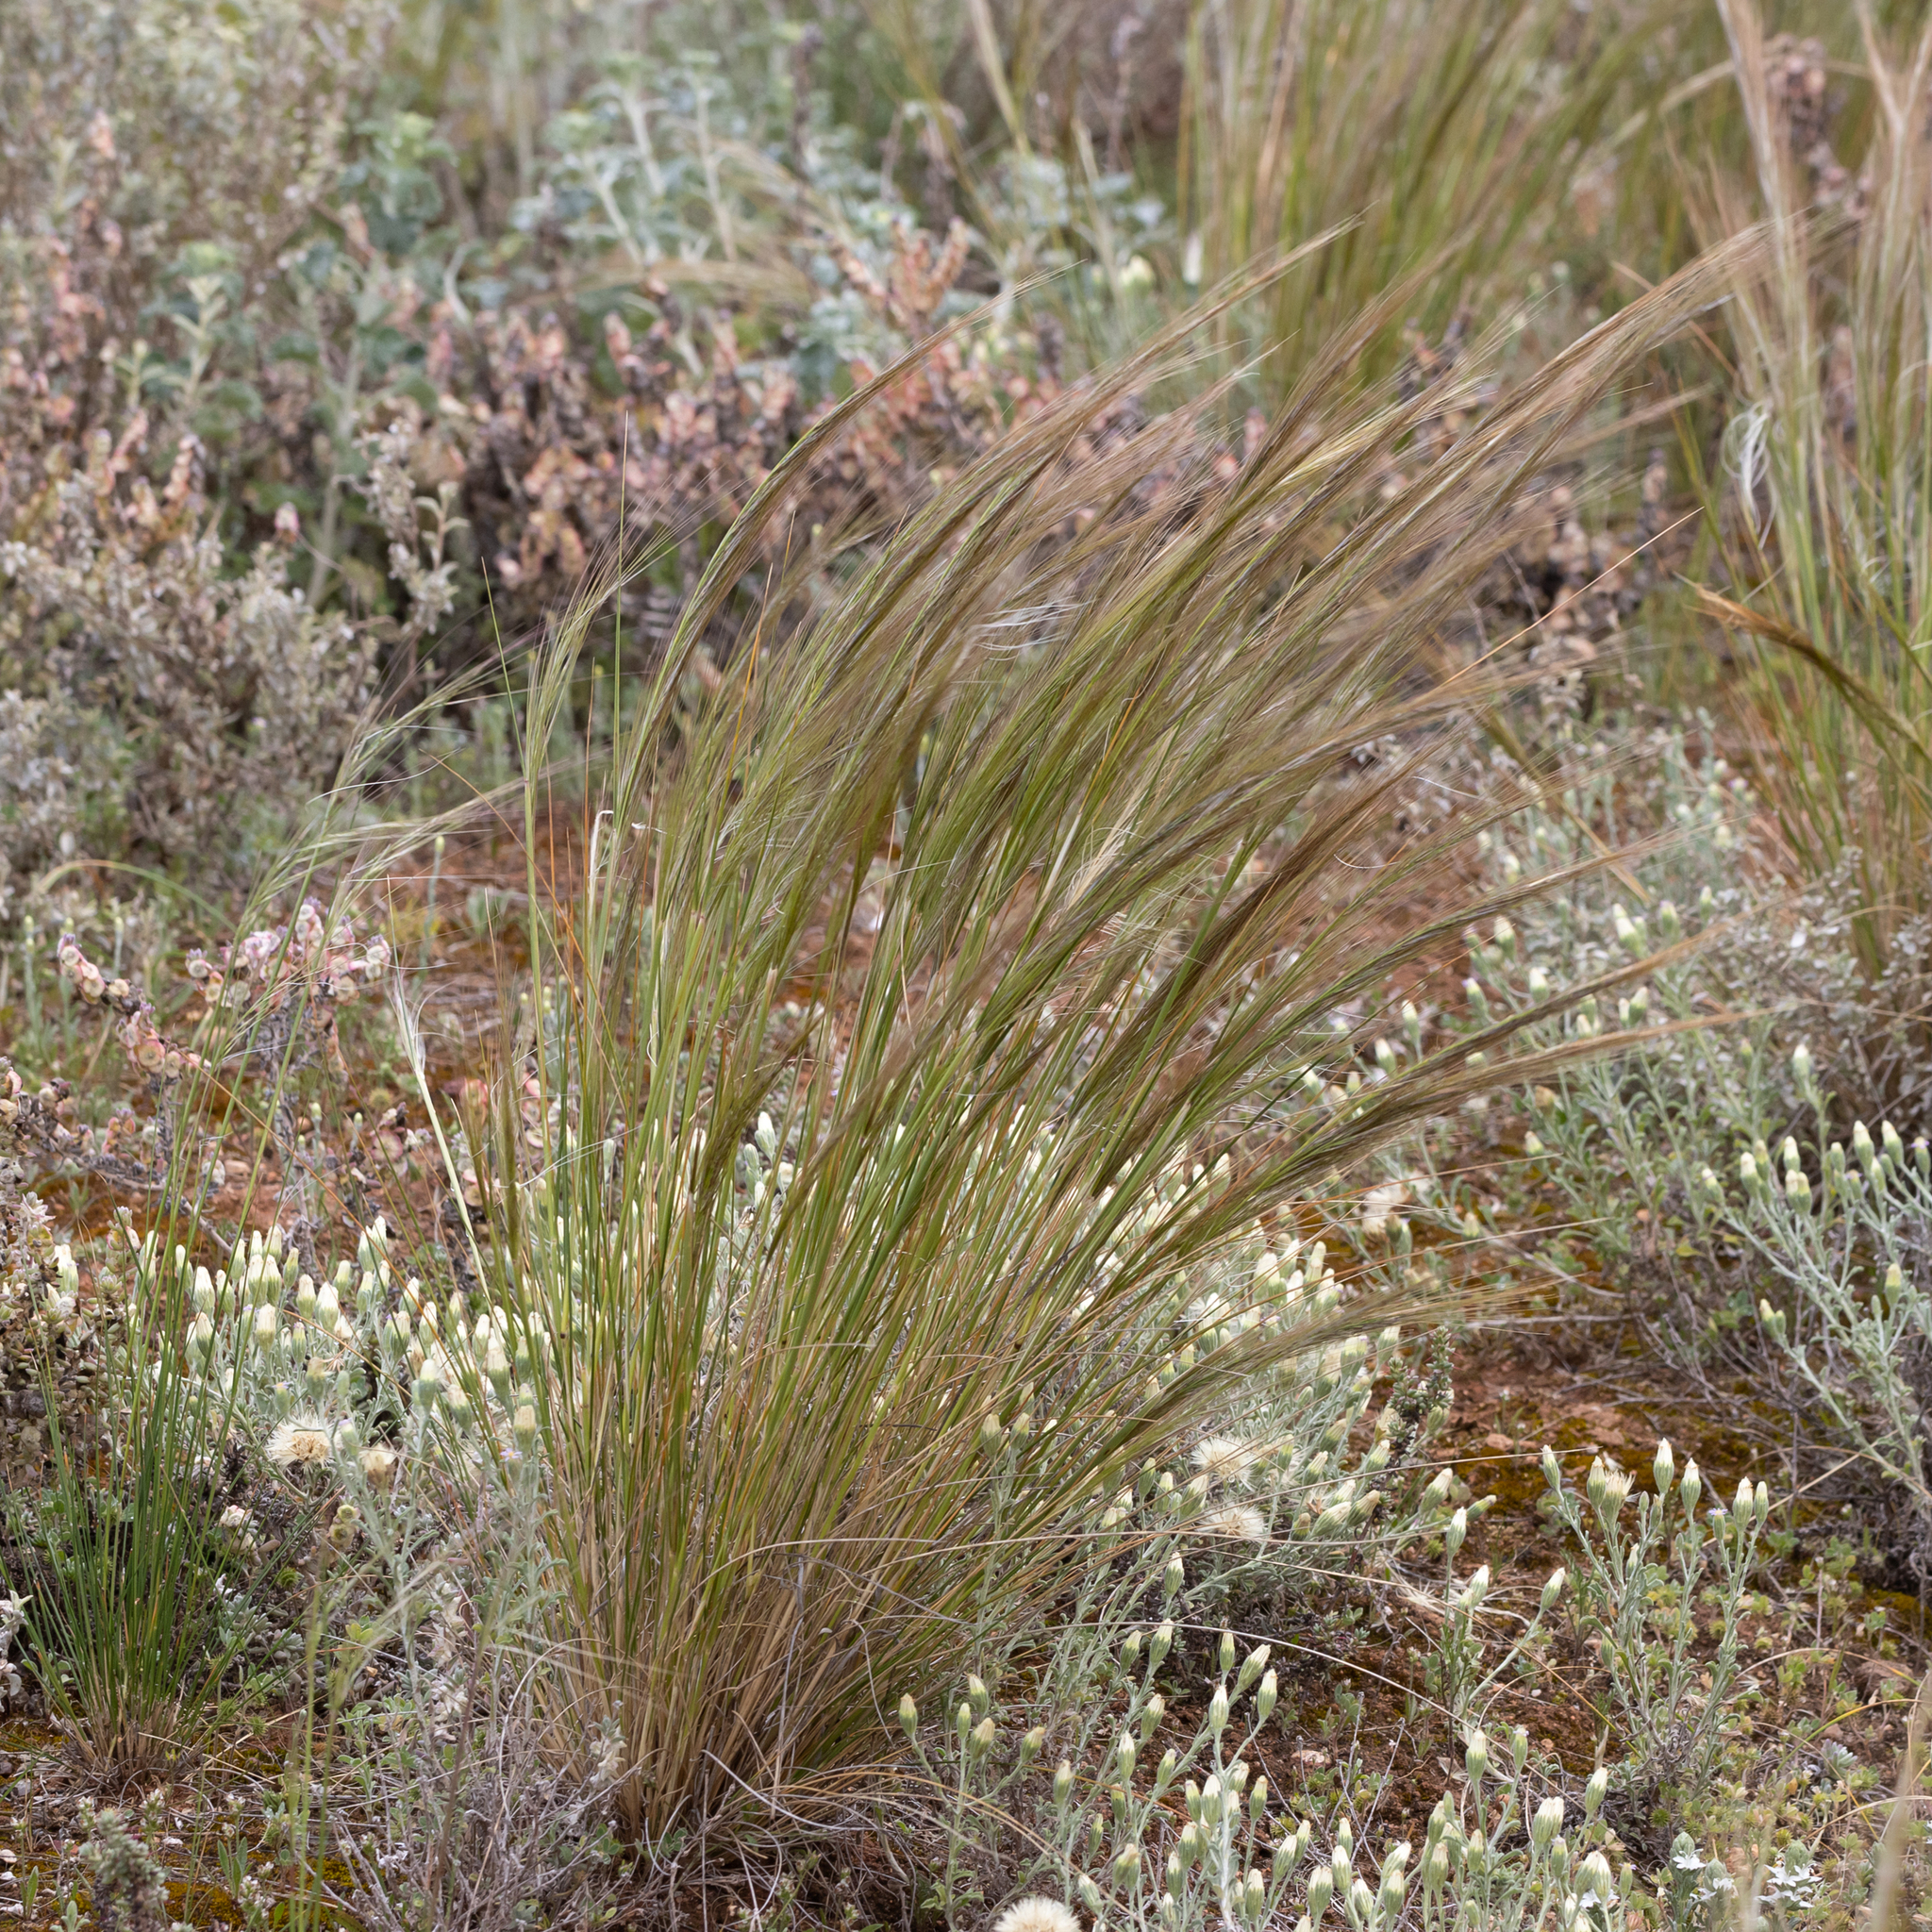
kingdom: Plantae
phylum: Tracheophyta
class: Liliopsida
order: Poales
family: Poaceae
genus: Austrostipa
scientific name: Austrostipa nitida
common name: Balcarra grass
